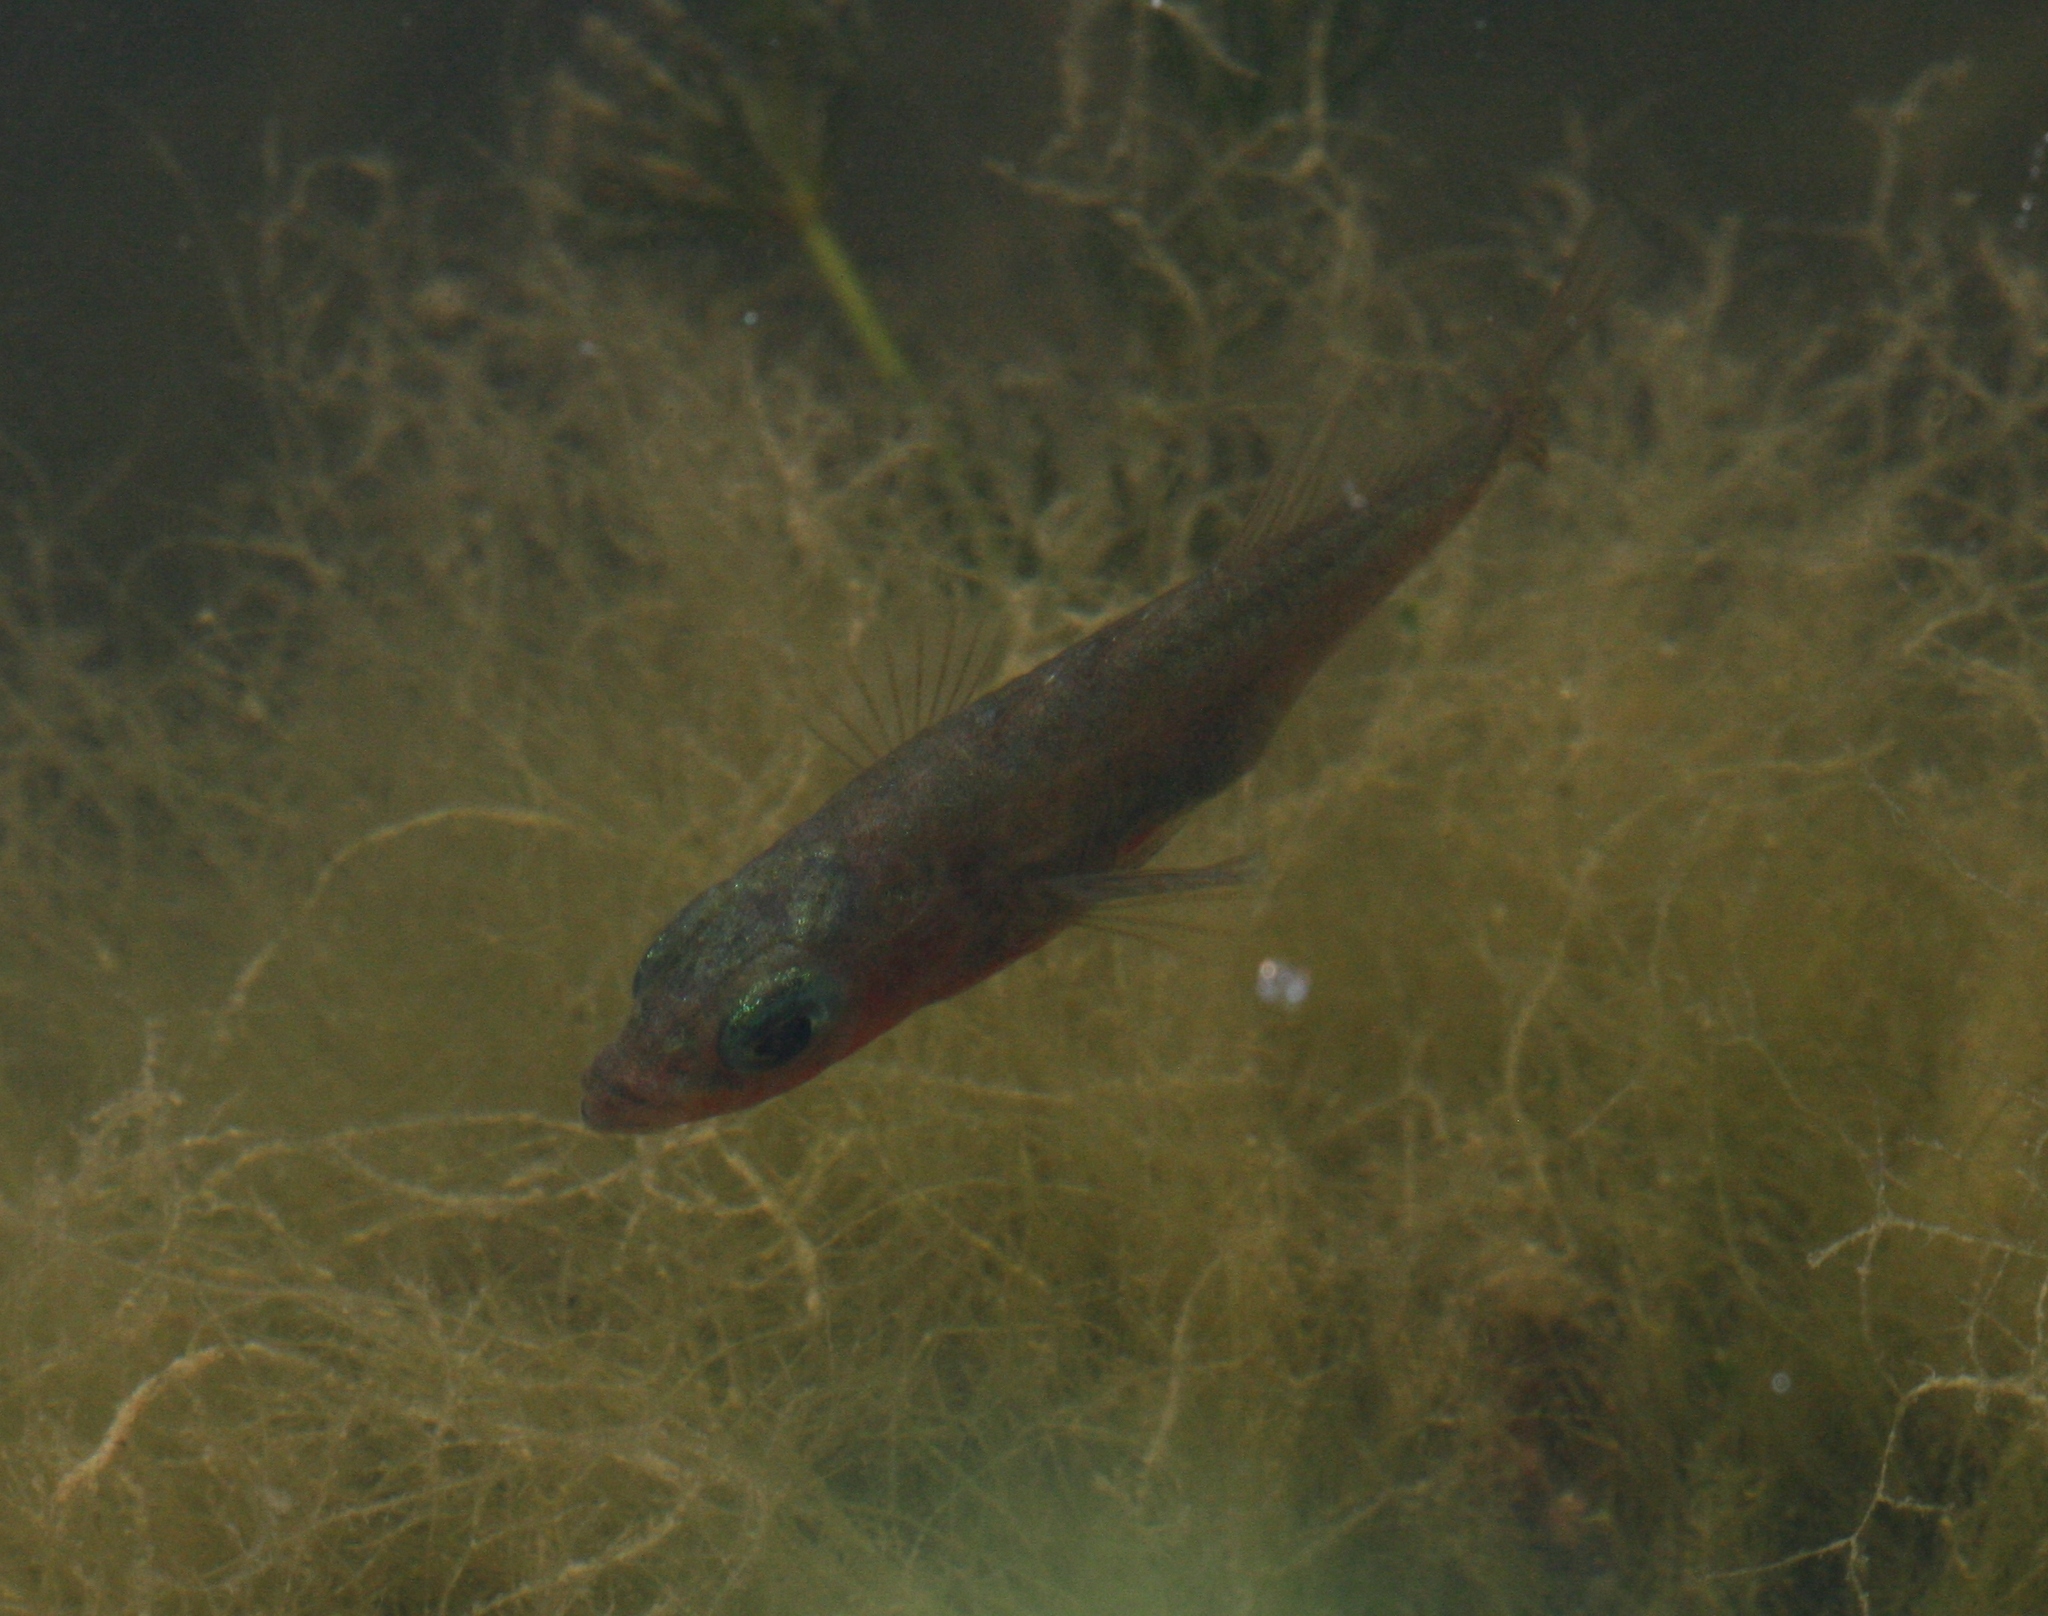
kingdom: Animalia
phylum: Chordata
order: Gasterosteiformes
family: Gasterosteidae
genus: Gasterosteus
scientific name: Gasterosteus aculeatus
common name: Three-spined stickleback
